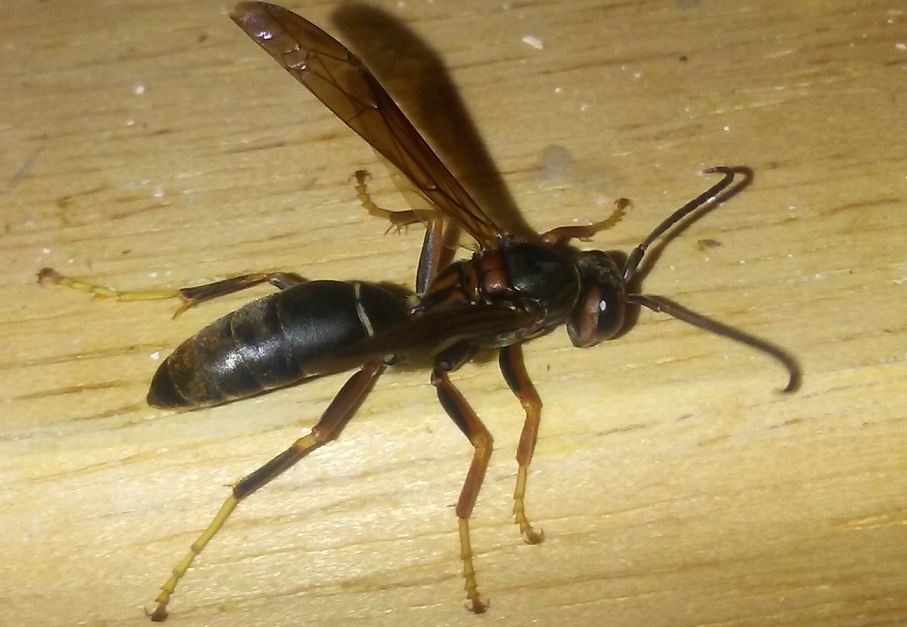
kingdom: Animalia
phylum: Arthropoda
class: Insecta
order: Hymenoptera
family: Eumenidae
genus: Polistes
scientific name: Polistes parametricus
